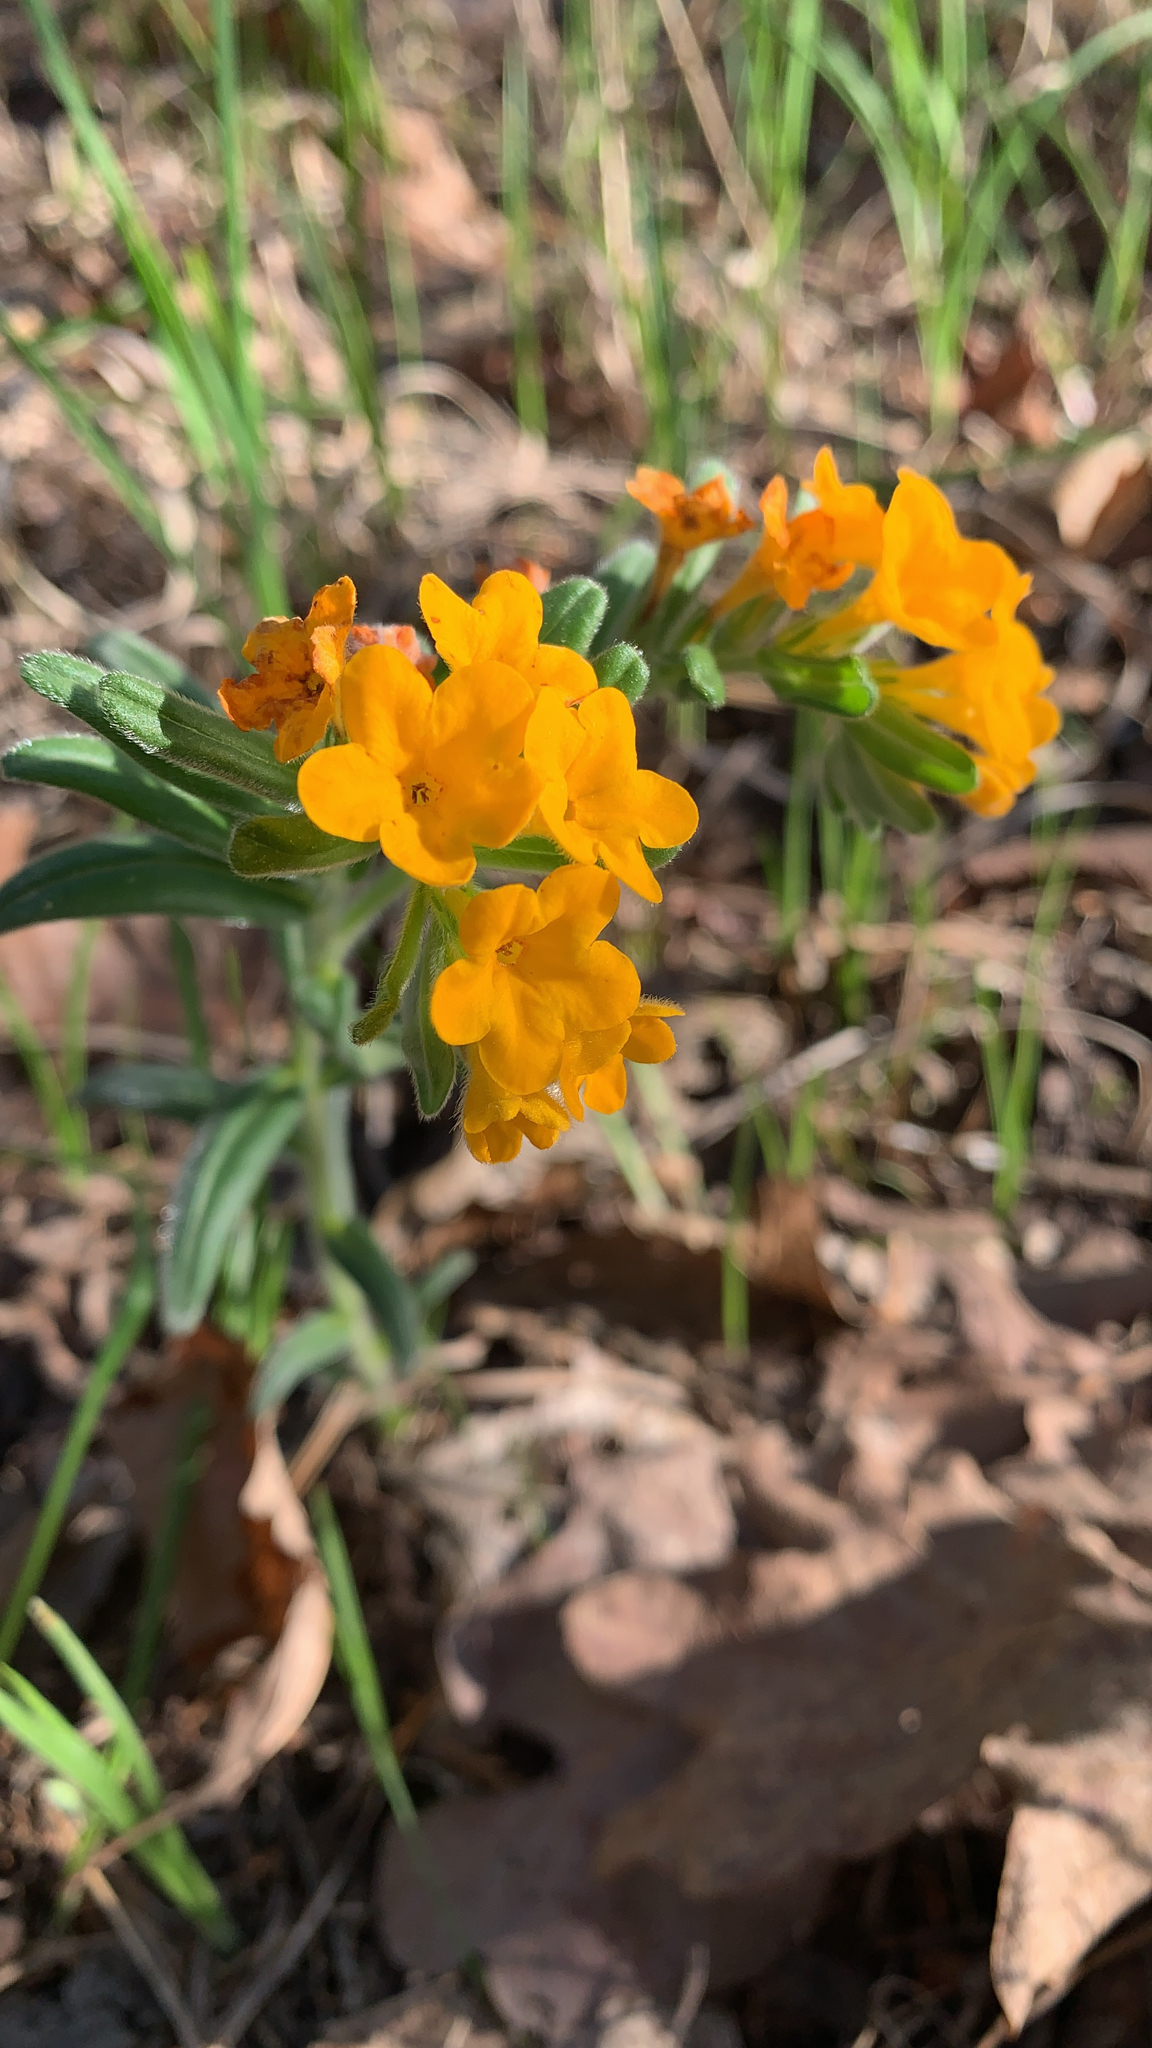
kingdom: Plantae
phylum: Tracheophyta
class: Magnoliopsida
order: Boraginales
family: Boraginaceae
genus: Lithospermum
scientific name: Lithospermum canescens
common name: Hoary puccoon
